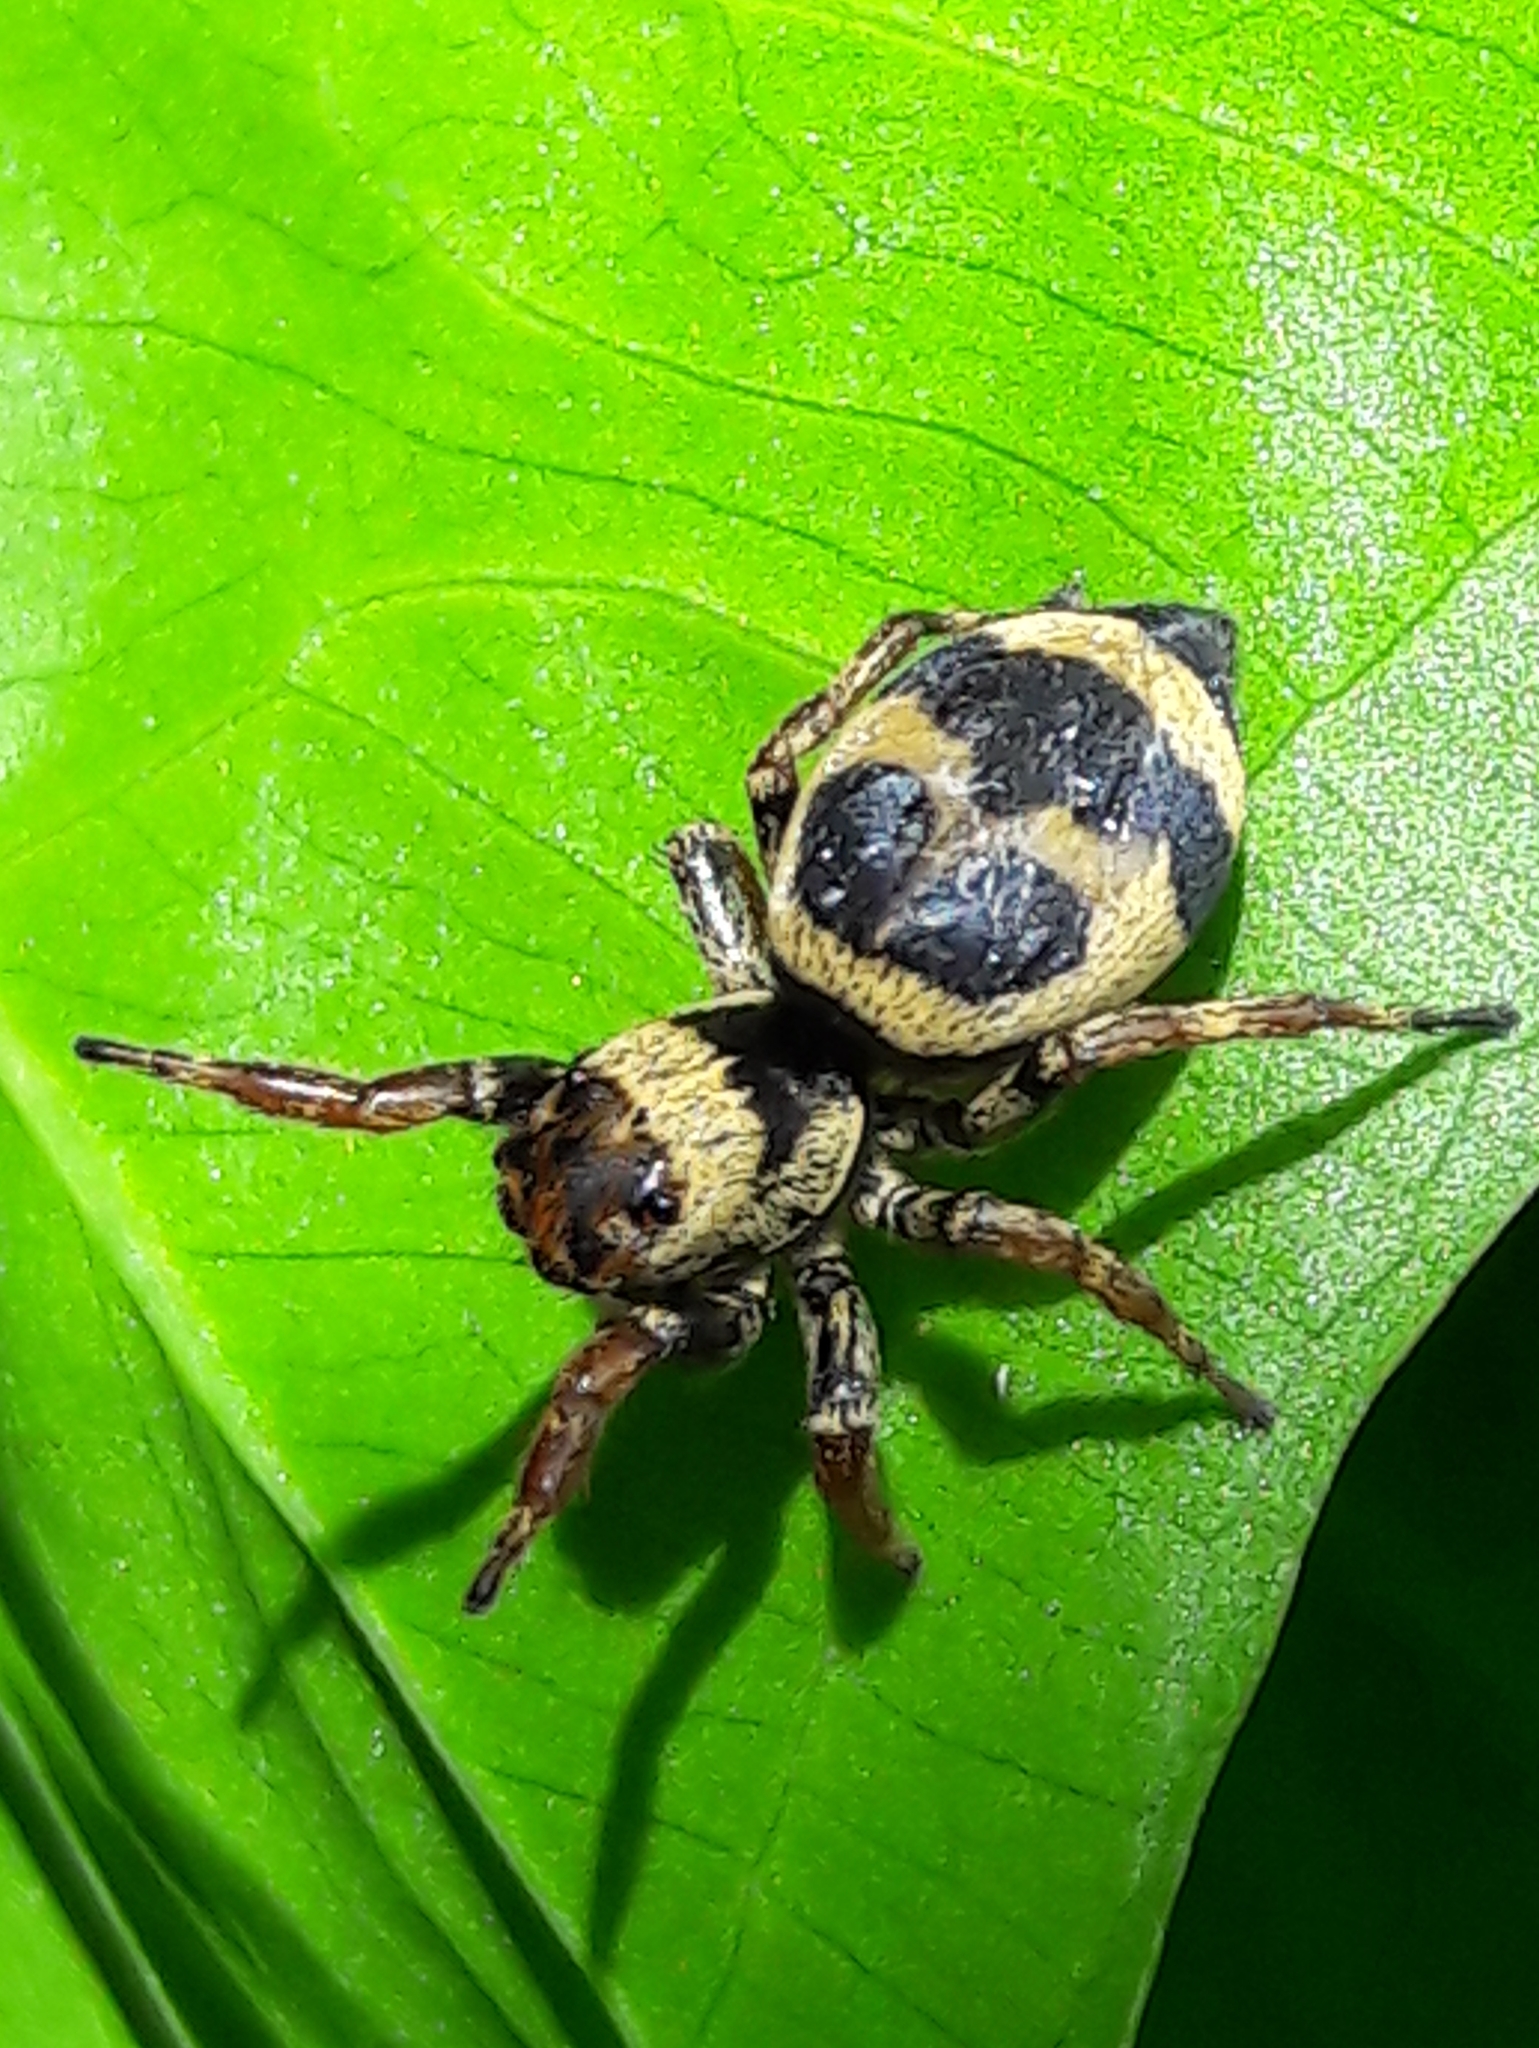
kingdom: Animalia
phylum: Arthropoda
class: Arachnida
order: Araneae
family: Salticidae
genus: Phiale
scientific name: Phiale tristis
